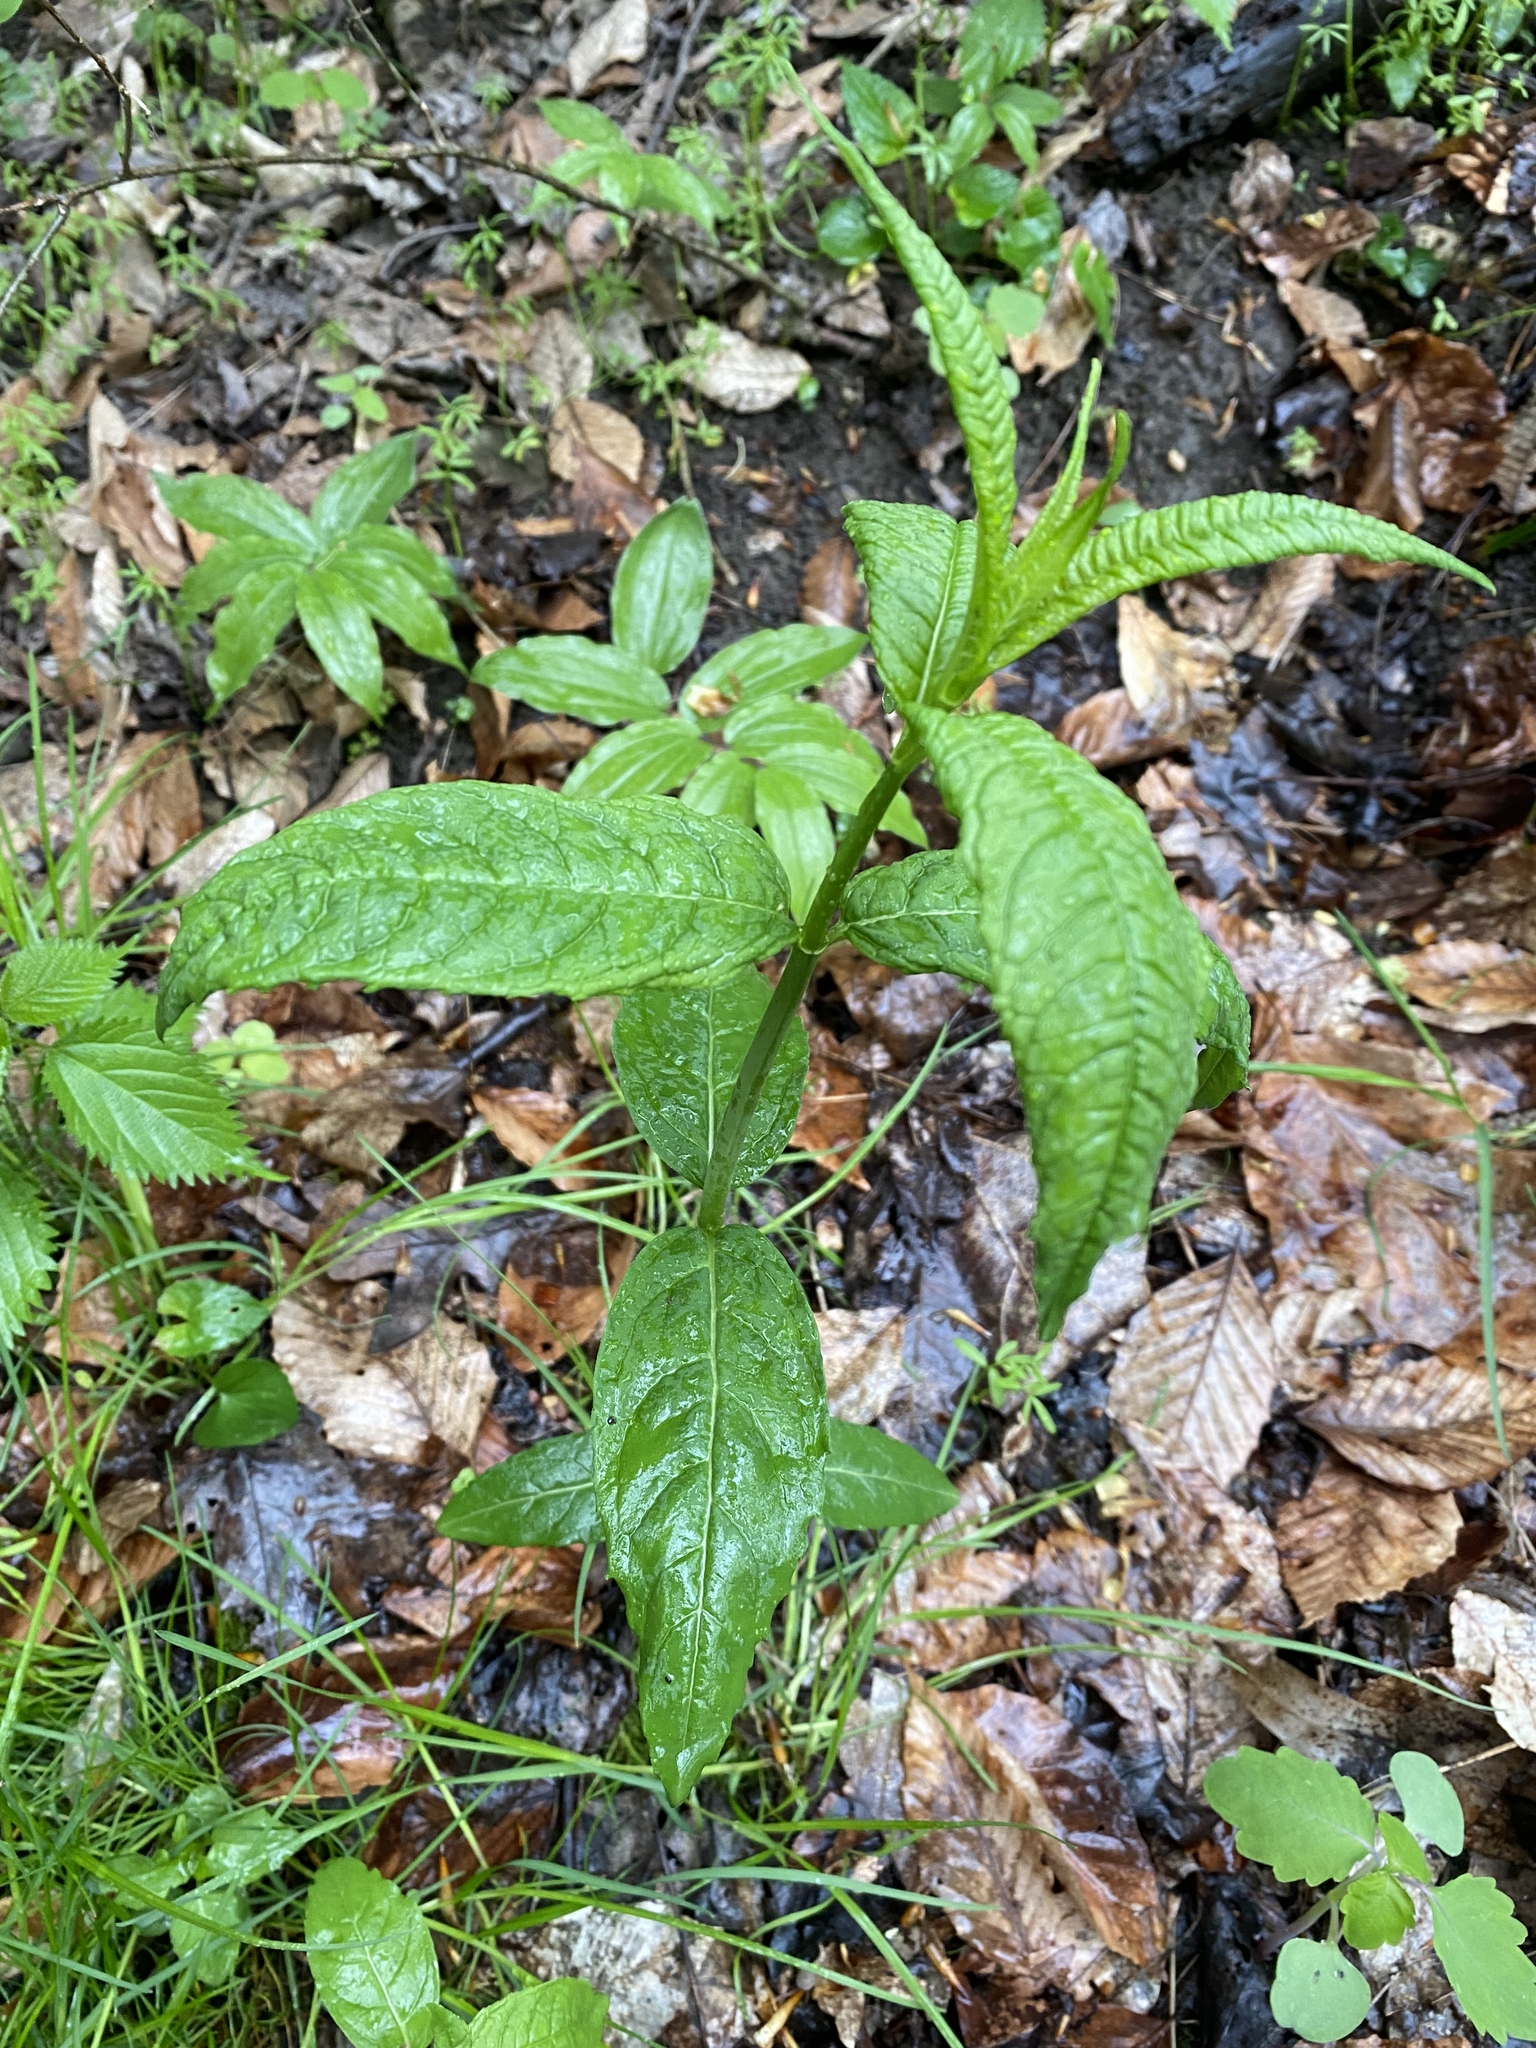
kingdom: Plantae
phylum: Tracheophyta
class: Magnoliopsida
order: Lamiales
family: Plantaginaceae
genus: Chelone
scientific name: Chelone glabra
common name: Snakehead
